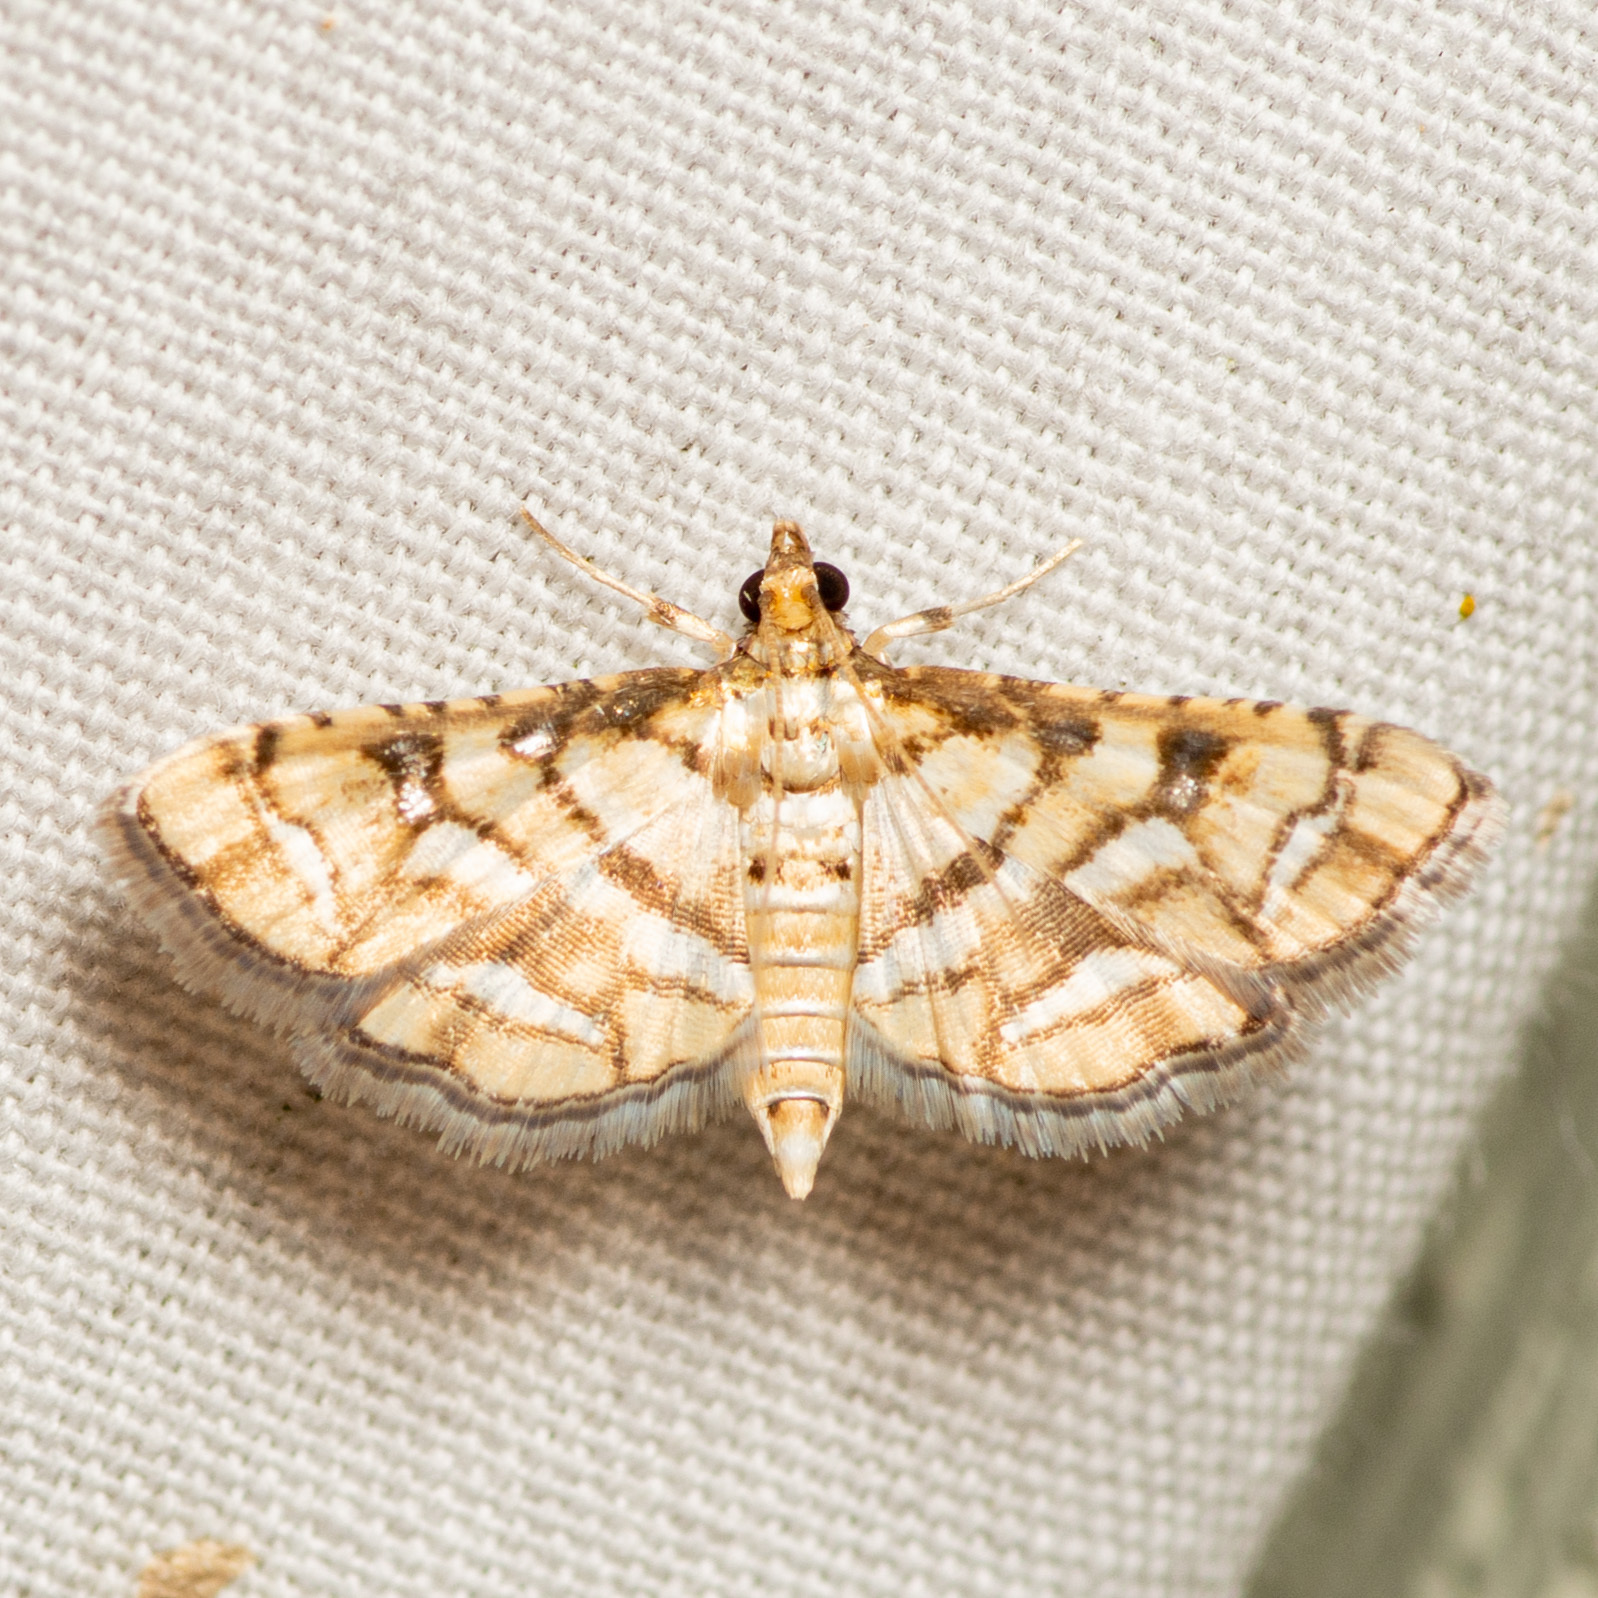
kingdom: Animalia
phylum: Arthropoda
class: Insecta
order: Lepidoptera
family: Crambidae
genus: Hileithia
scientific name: Hileithia magualis
